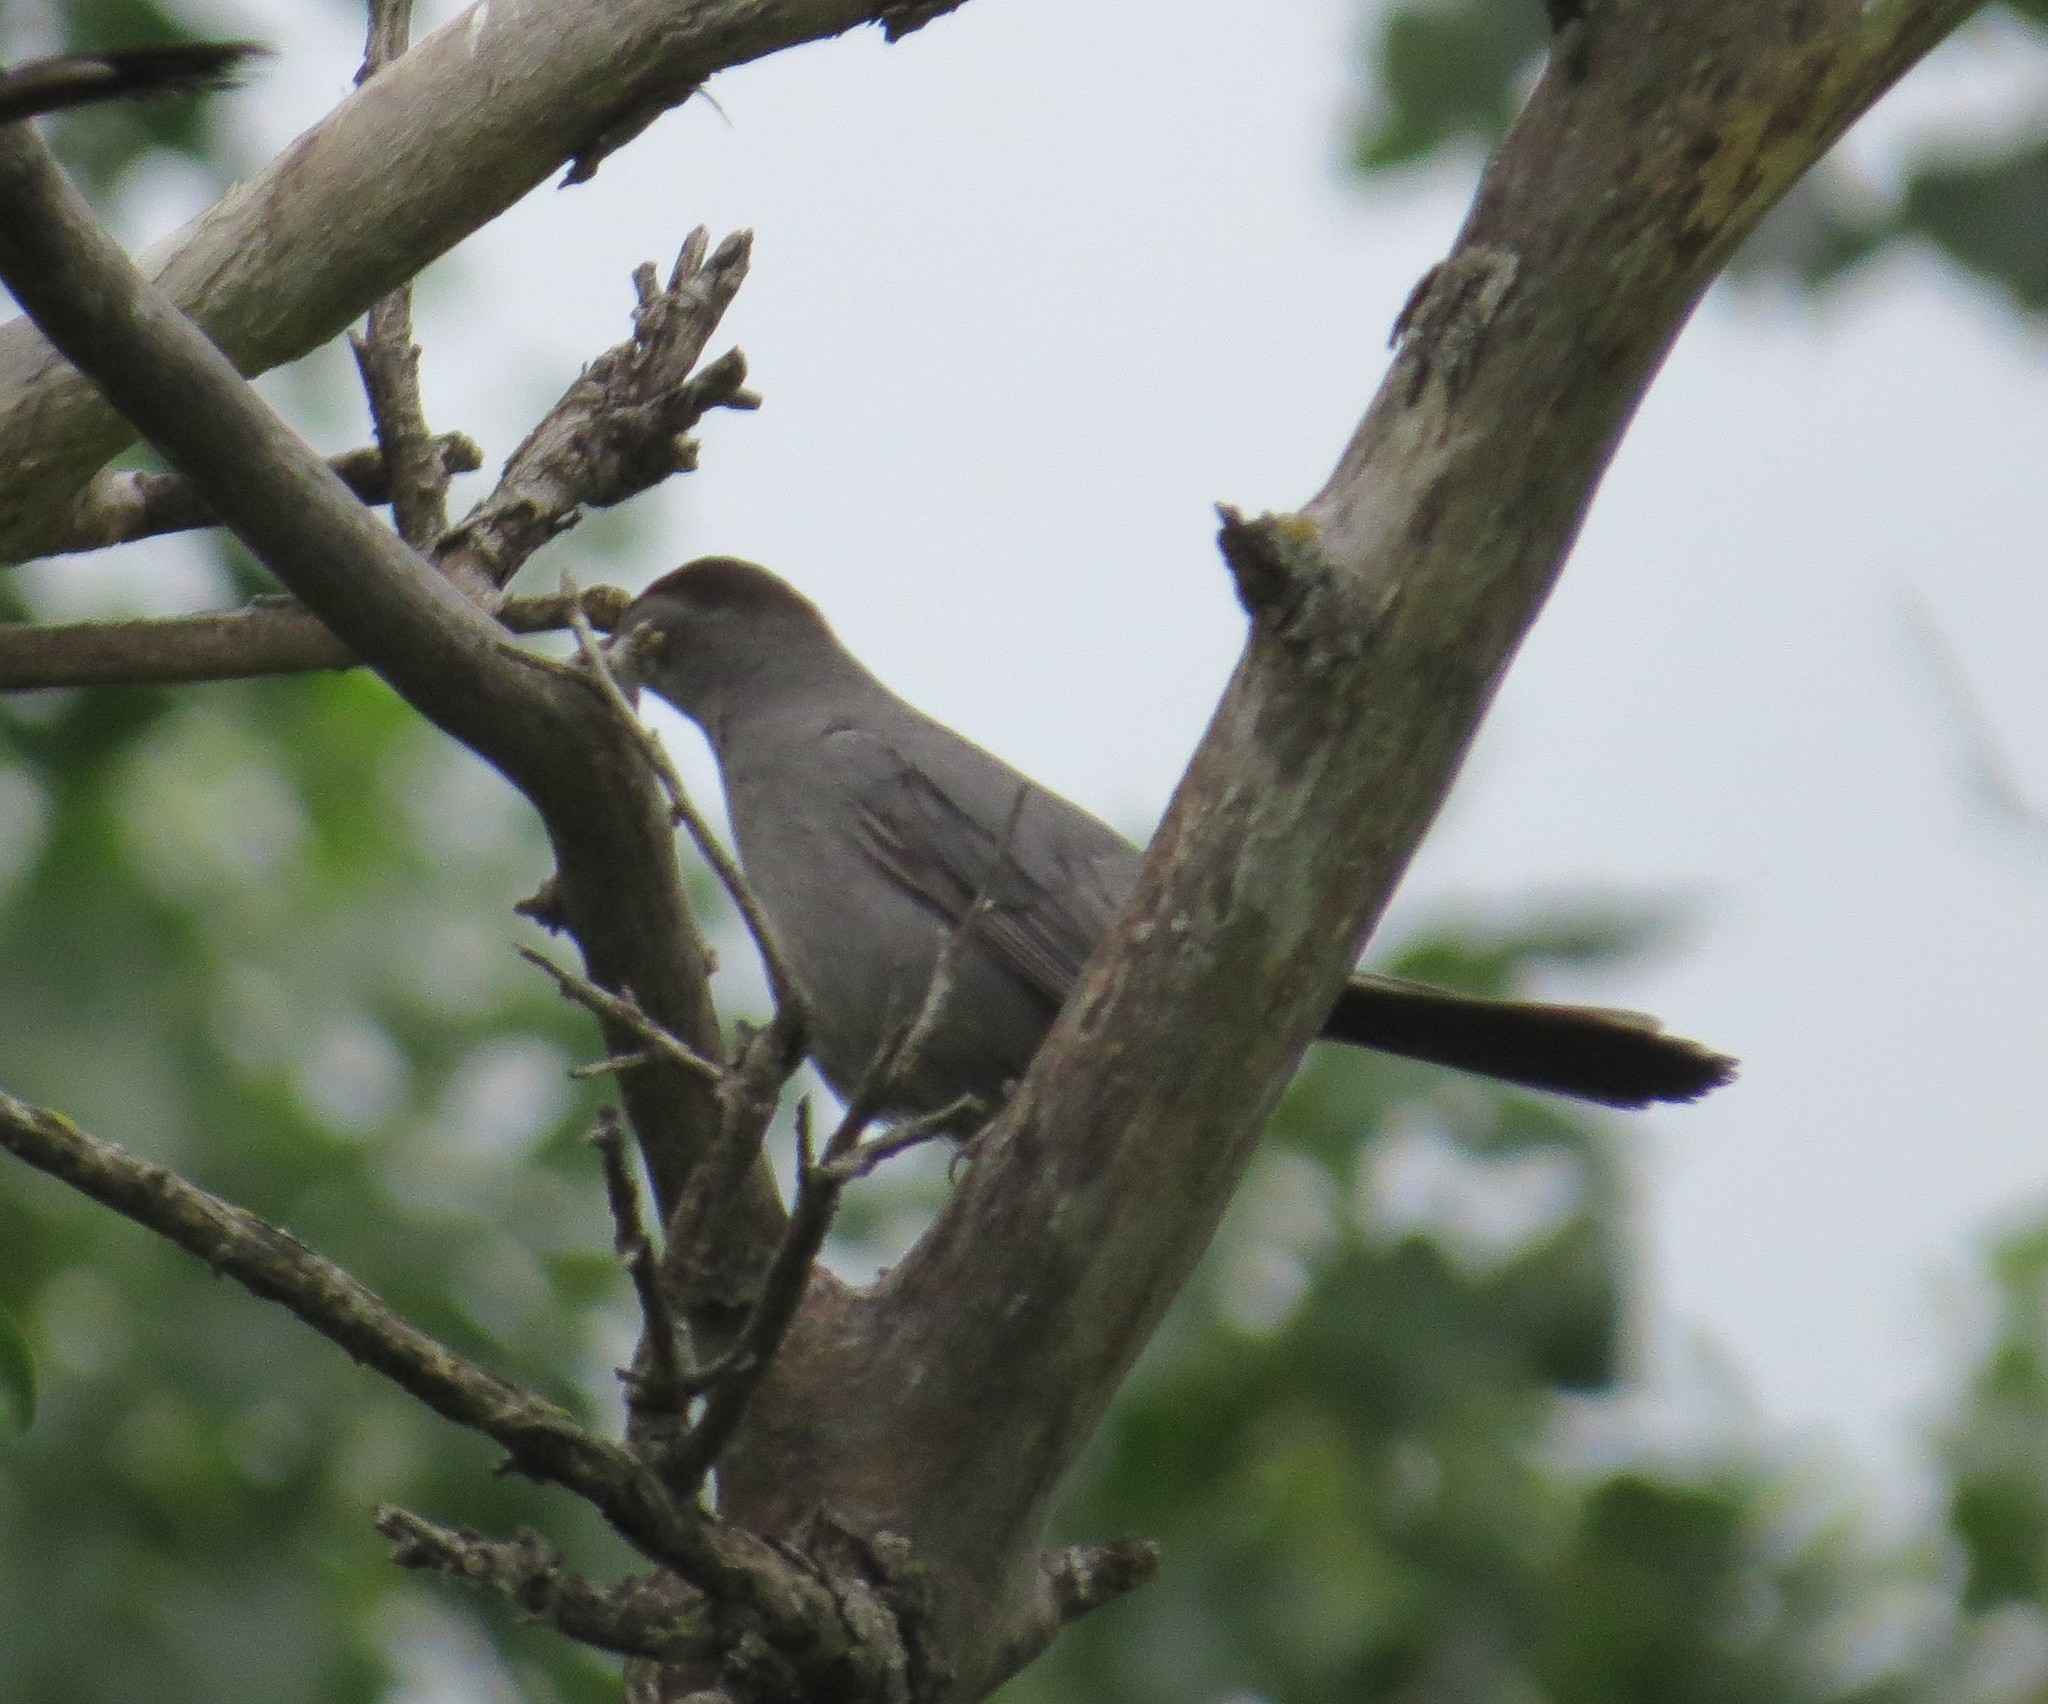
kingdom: Animalia
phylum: Chordata
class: Aves
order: Passeriformes
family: Mimidae
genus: Dumetella
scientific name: Dumetella carolinensis
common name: Gray catbird
